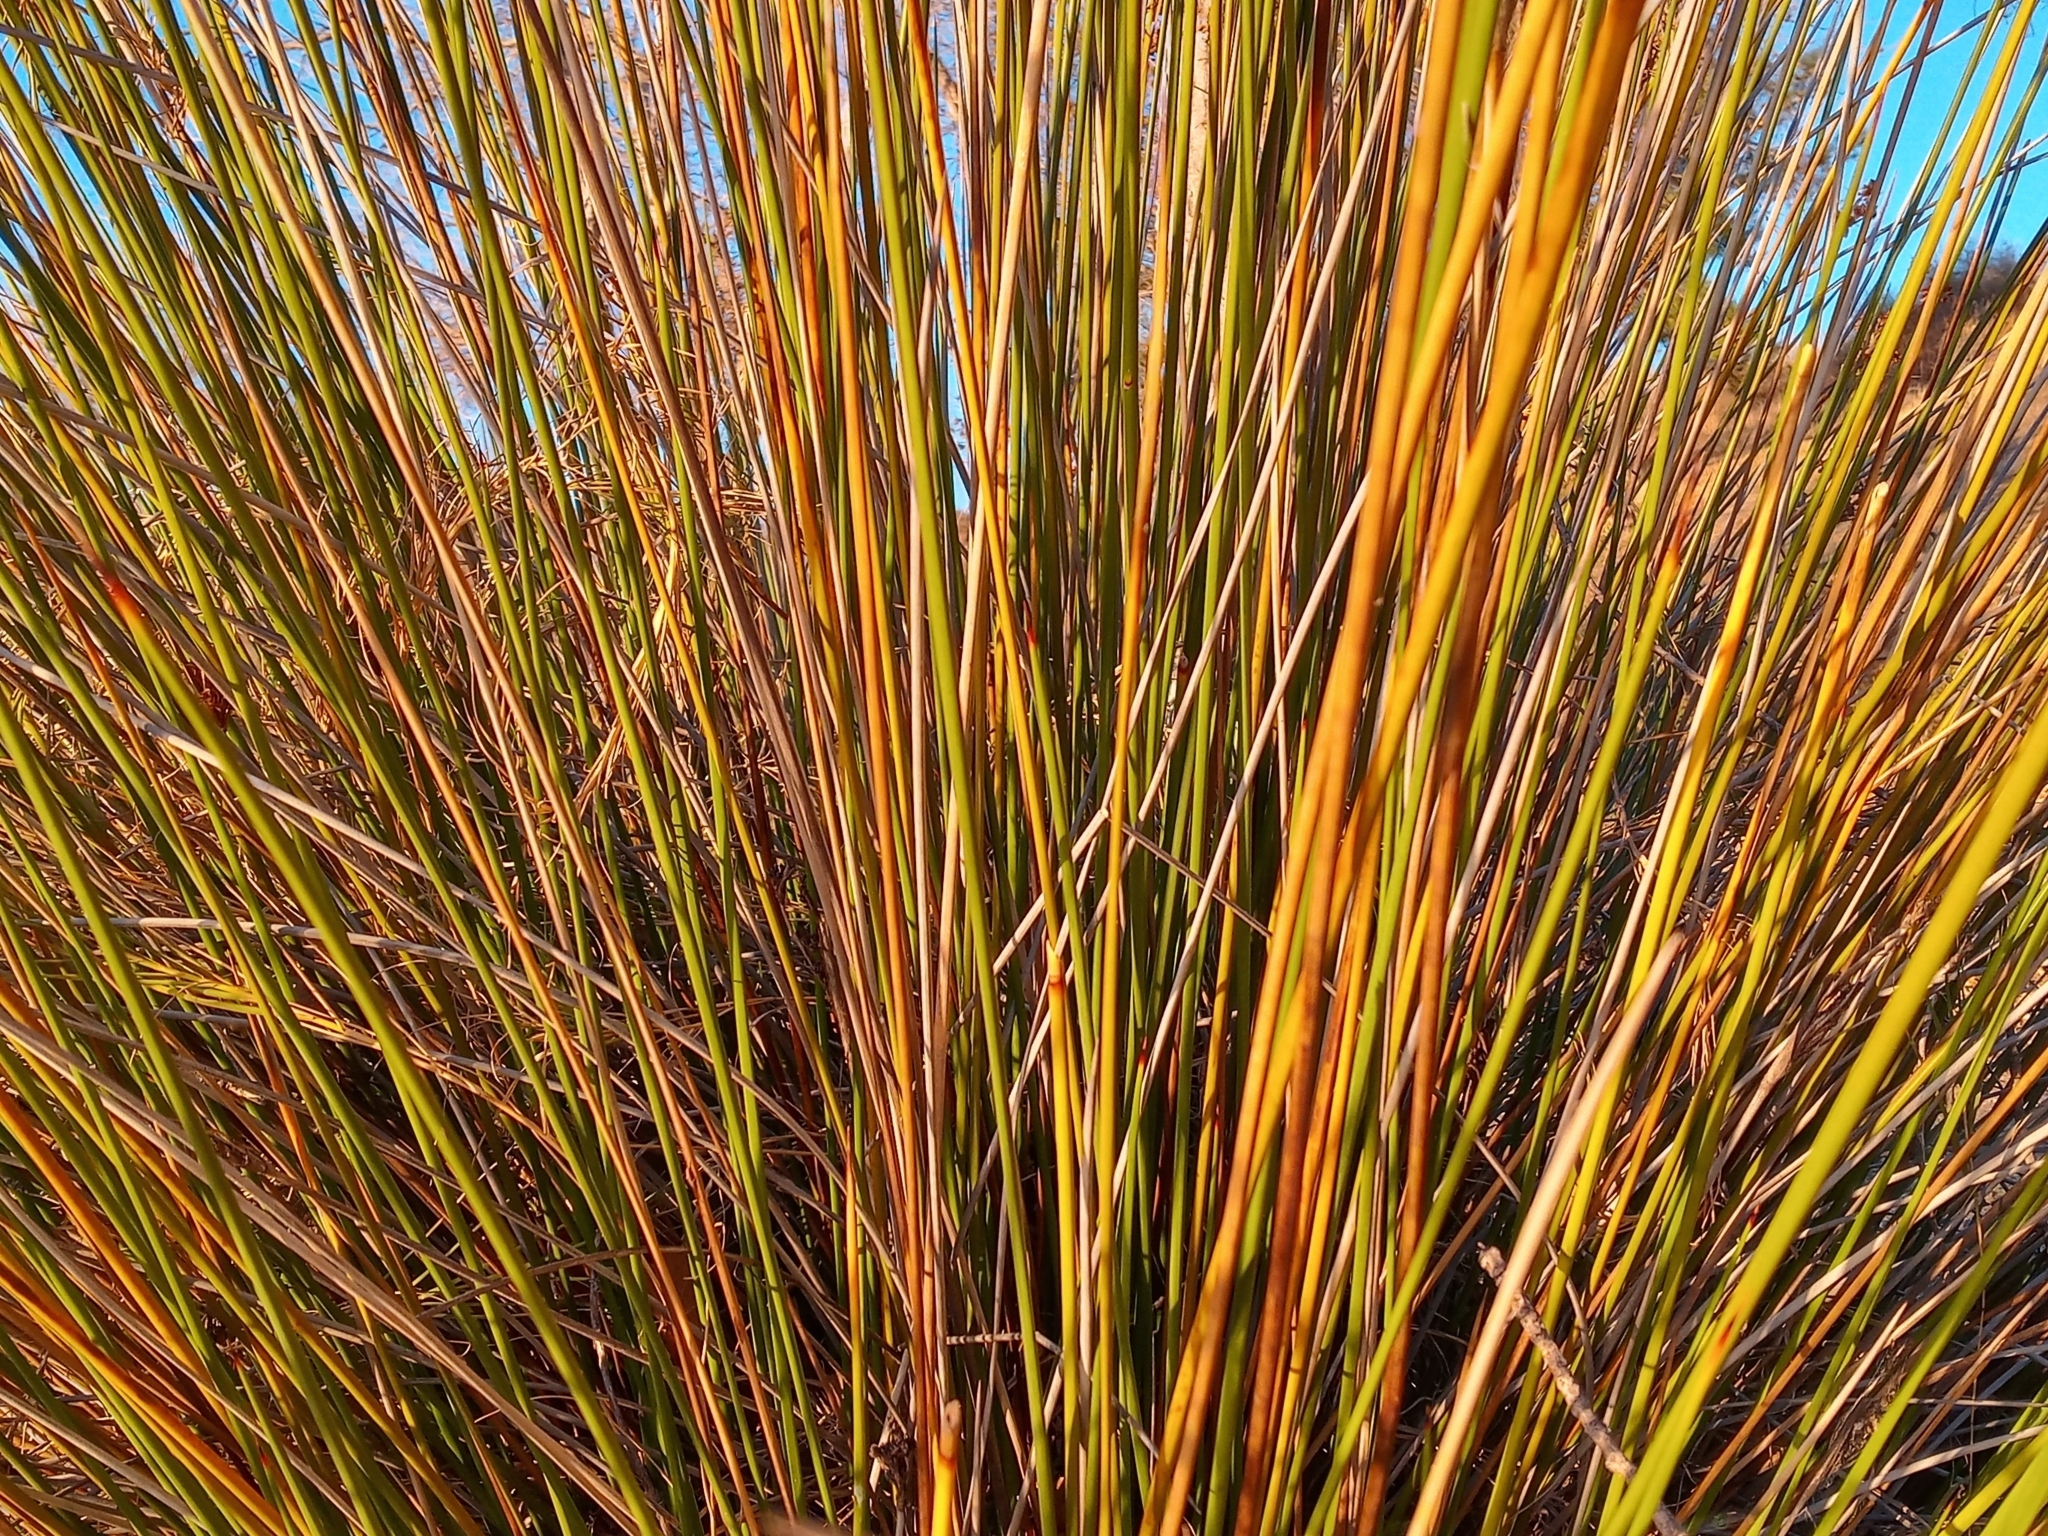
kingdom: Plantae
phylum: Tracheophyta
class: Liliopsida
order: Poales
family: Juncaceae
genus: Juncus
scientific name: Juncus acutus
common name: Sharp rush
